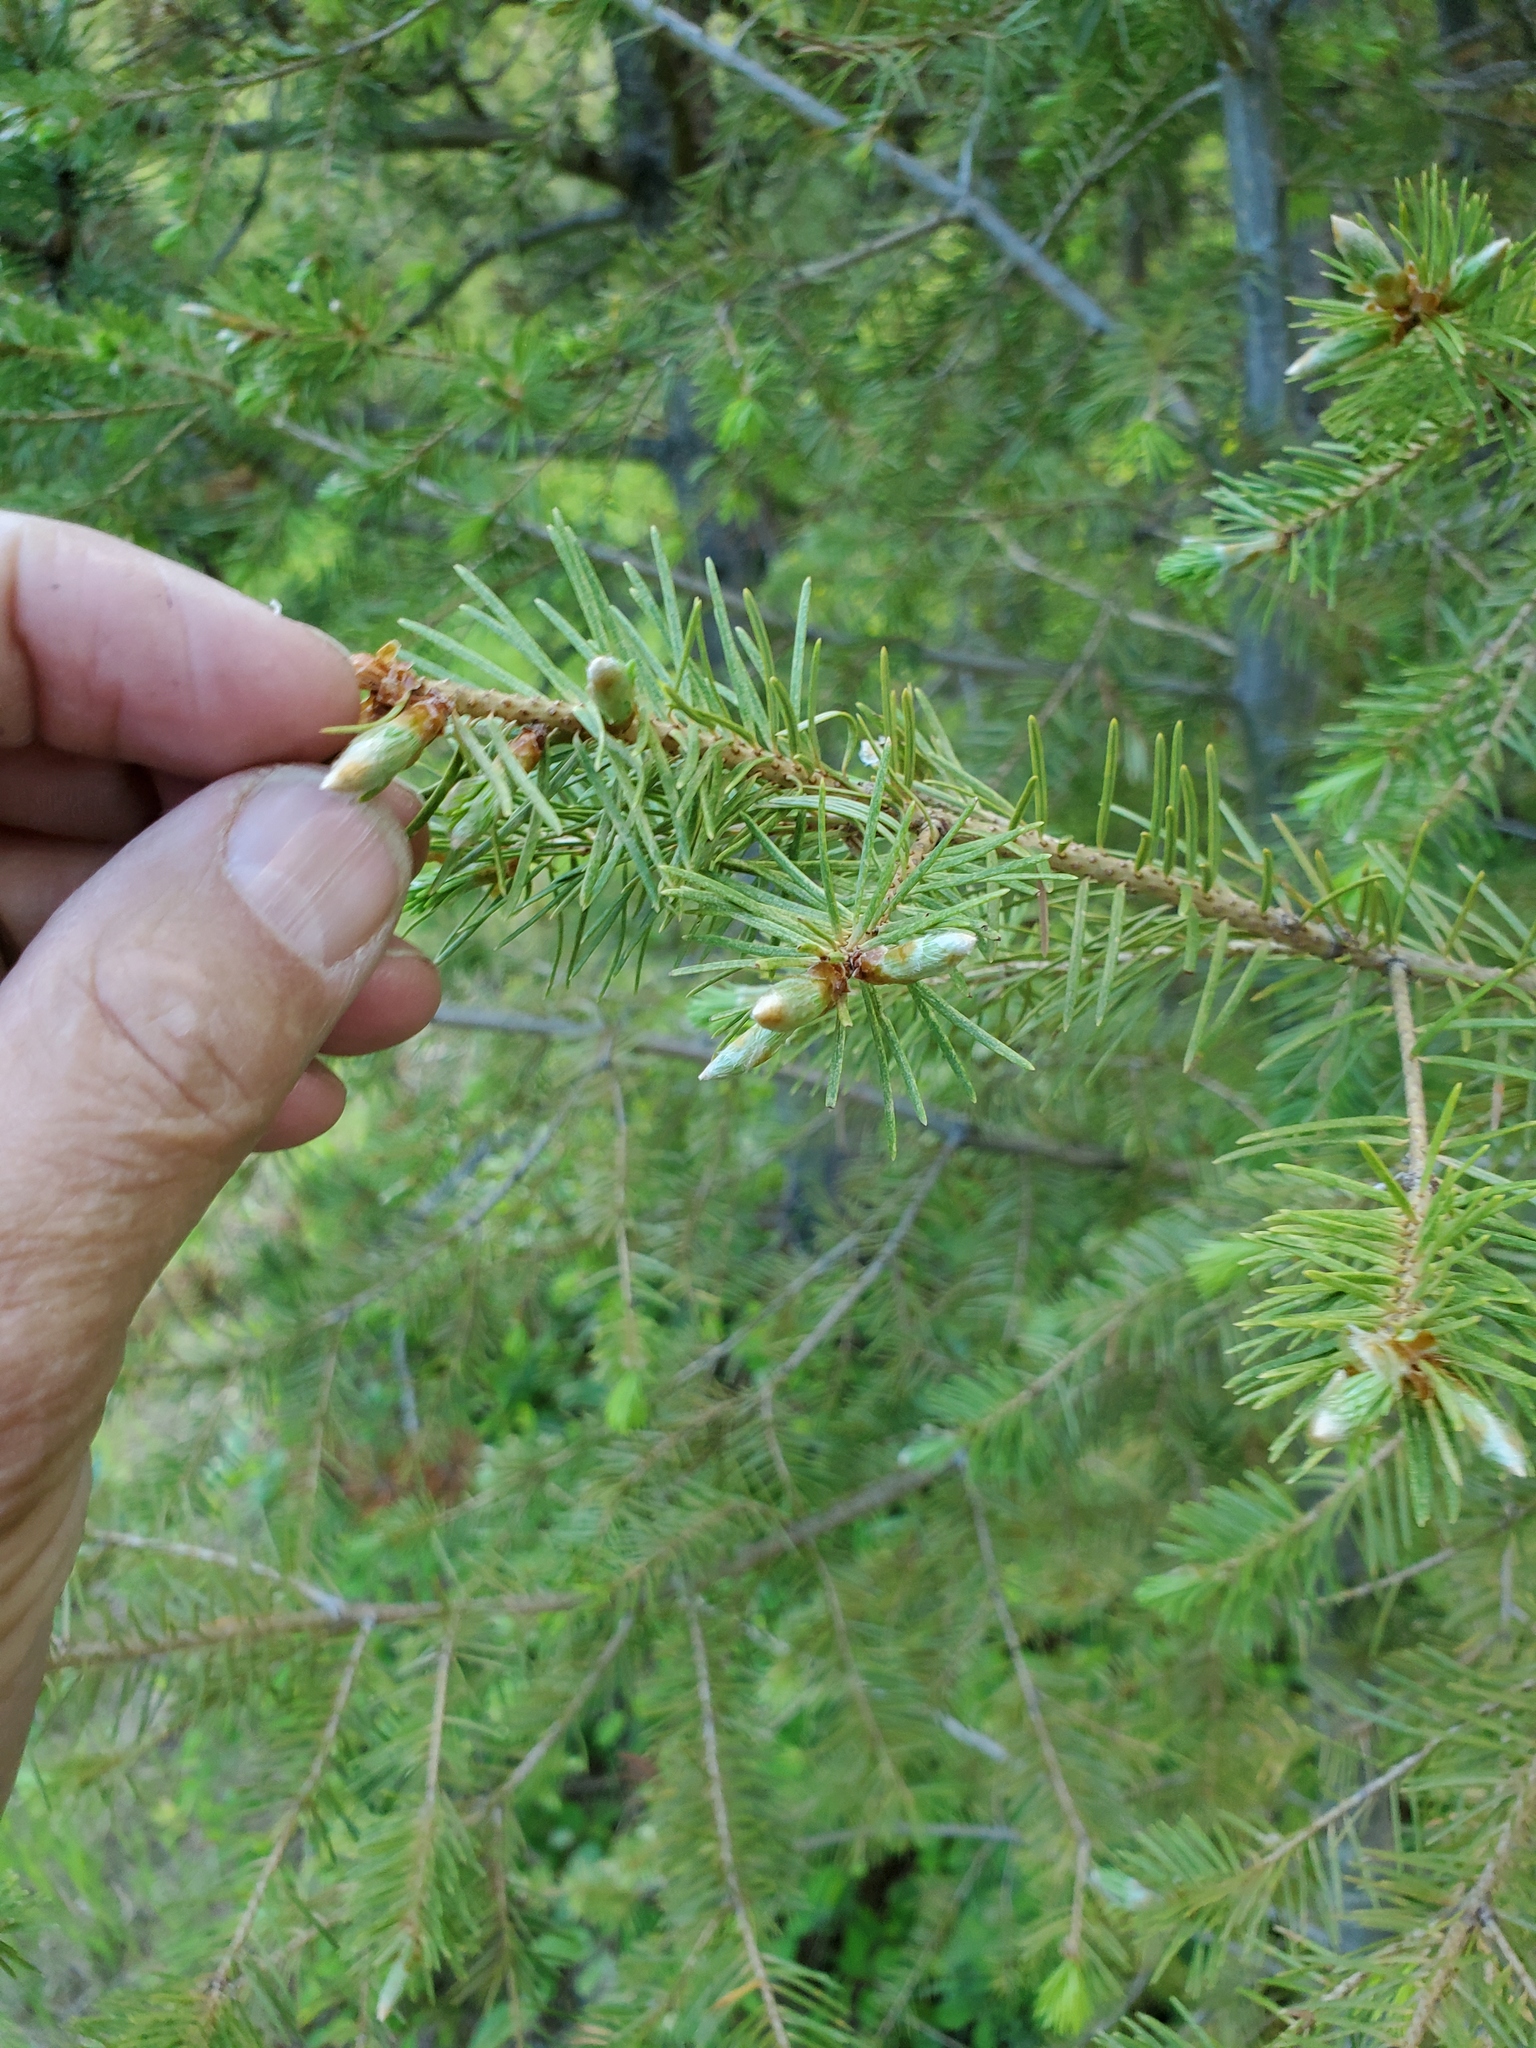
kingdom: Plantae
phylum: Tracheophyta
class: Pinopsida
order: Pinales
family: Pinaceae
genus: Pseudotsuga
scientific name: Pseudotsuga menziesii
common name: Douglas fir
